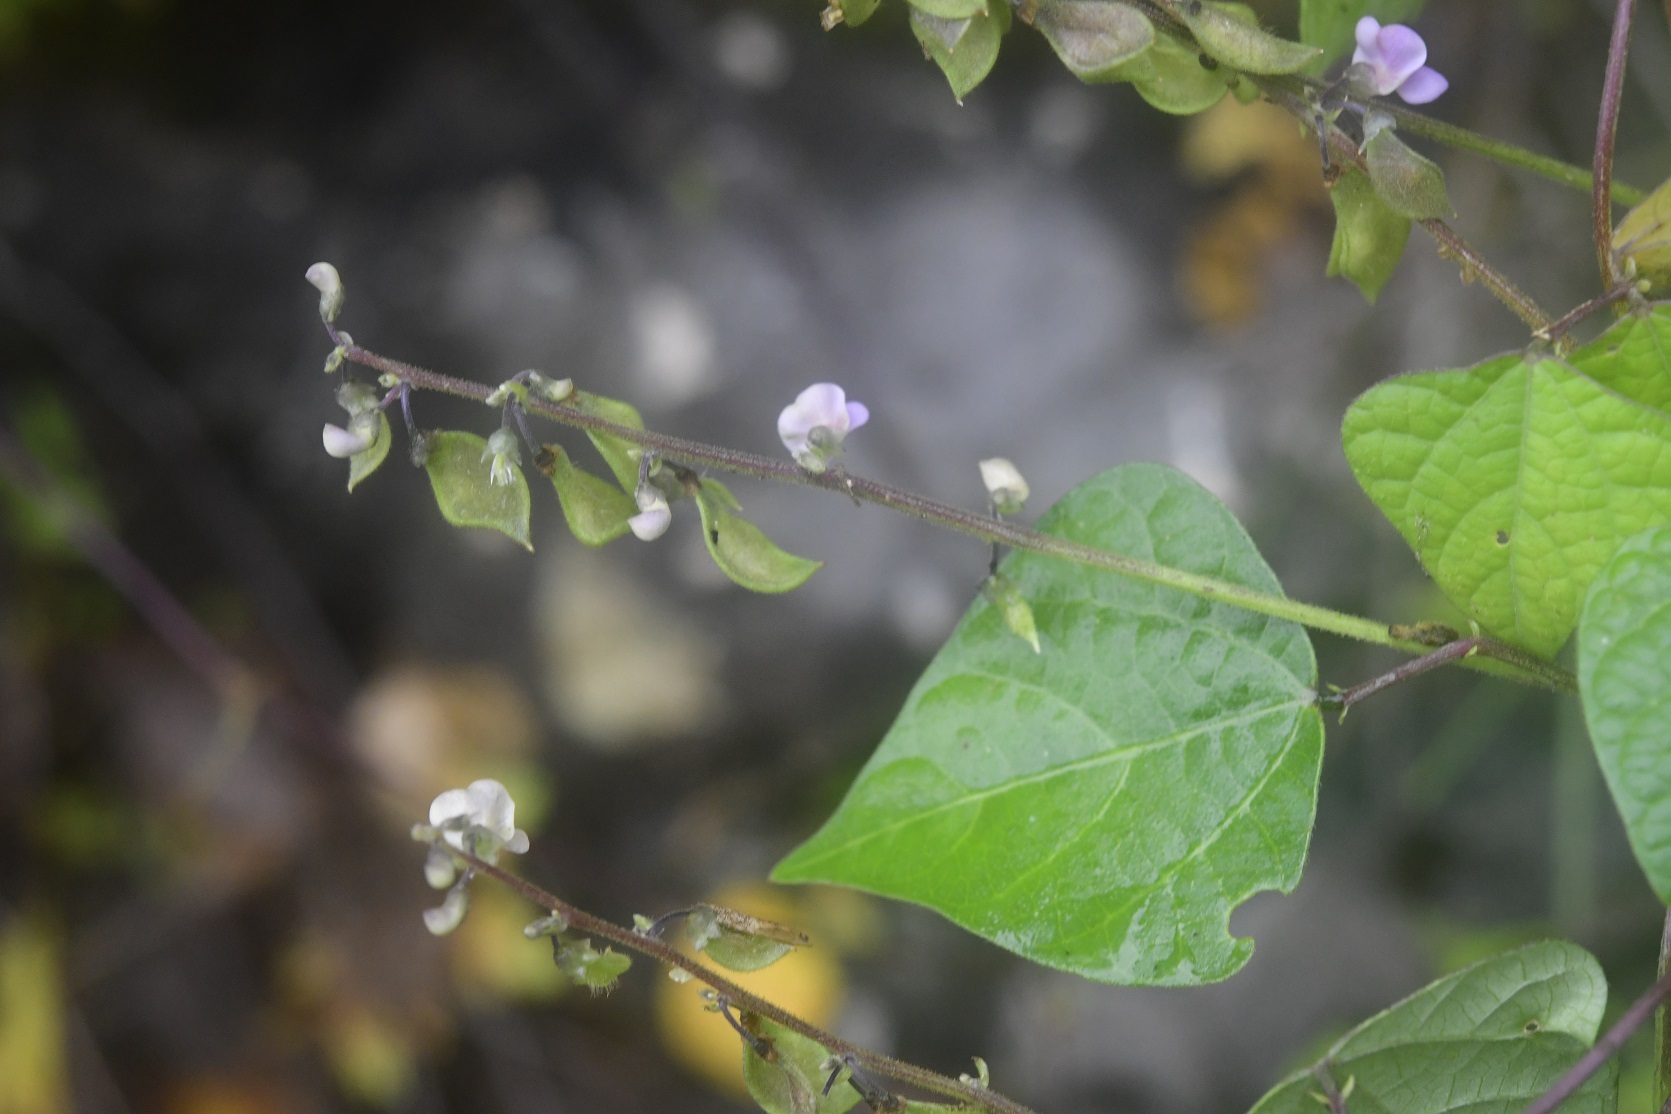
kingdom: Plantae
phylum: Tracheophyta
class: Magnoliopsida
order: Fabales
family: Fabaceae
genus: Phaseolus
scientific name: Phaseolus microcarpus
